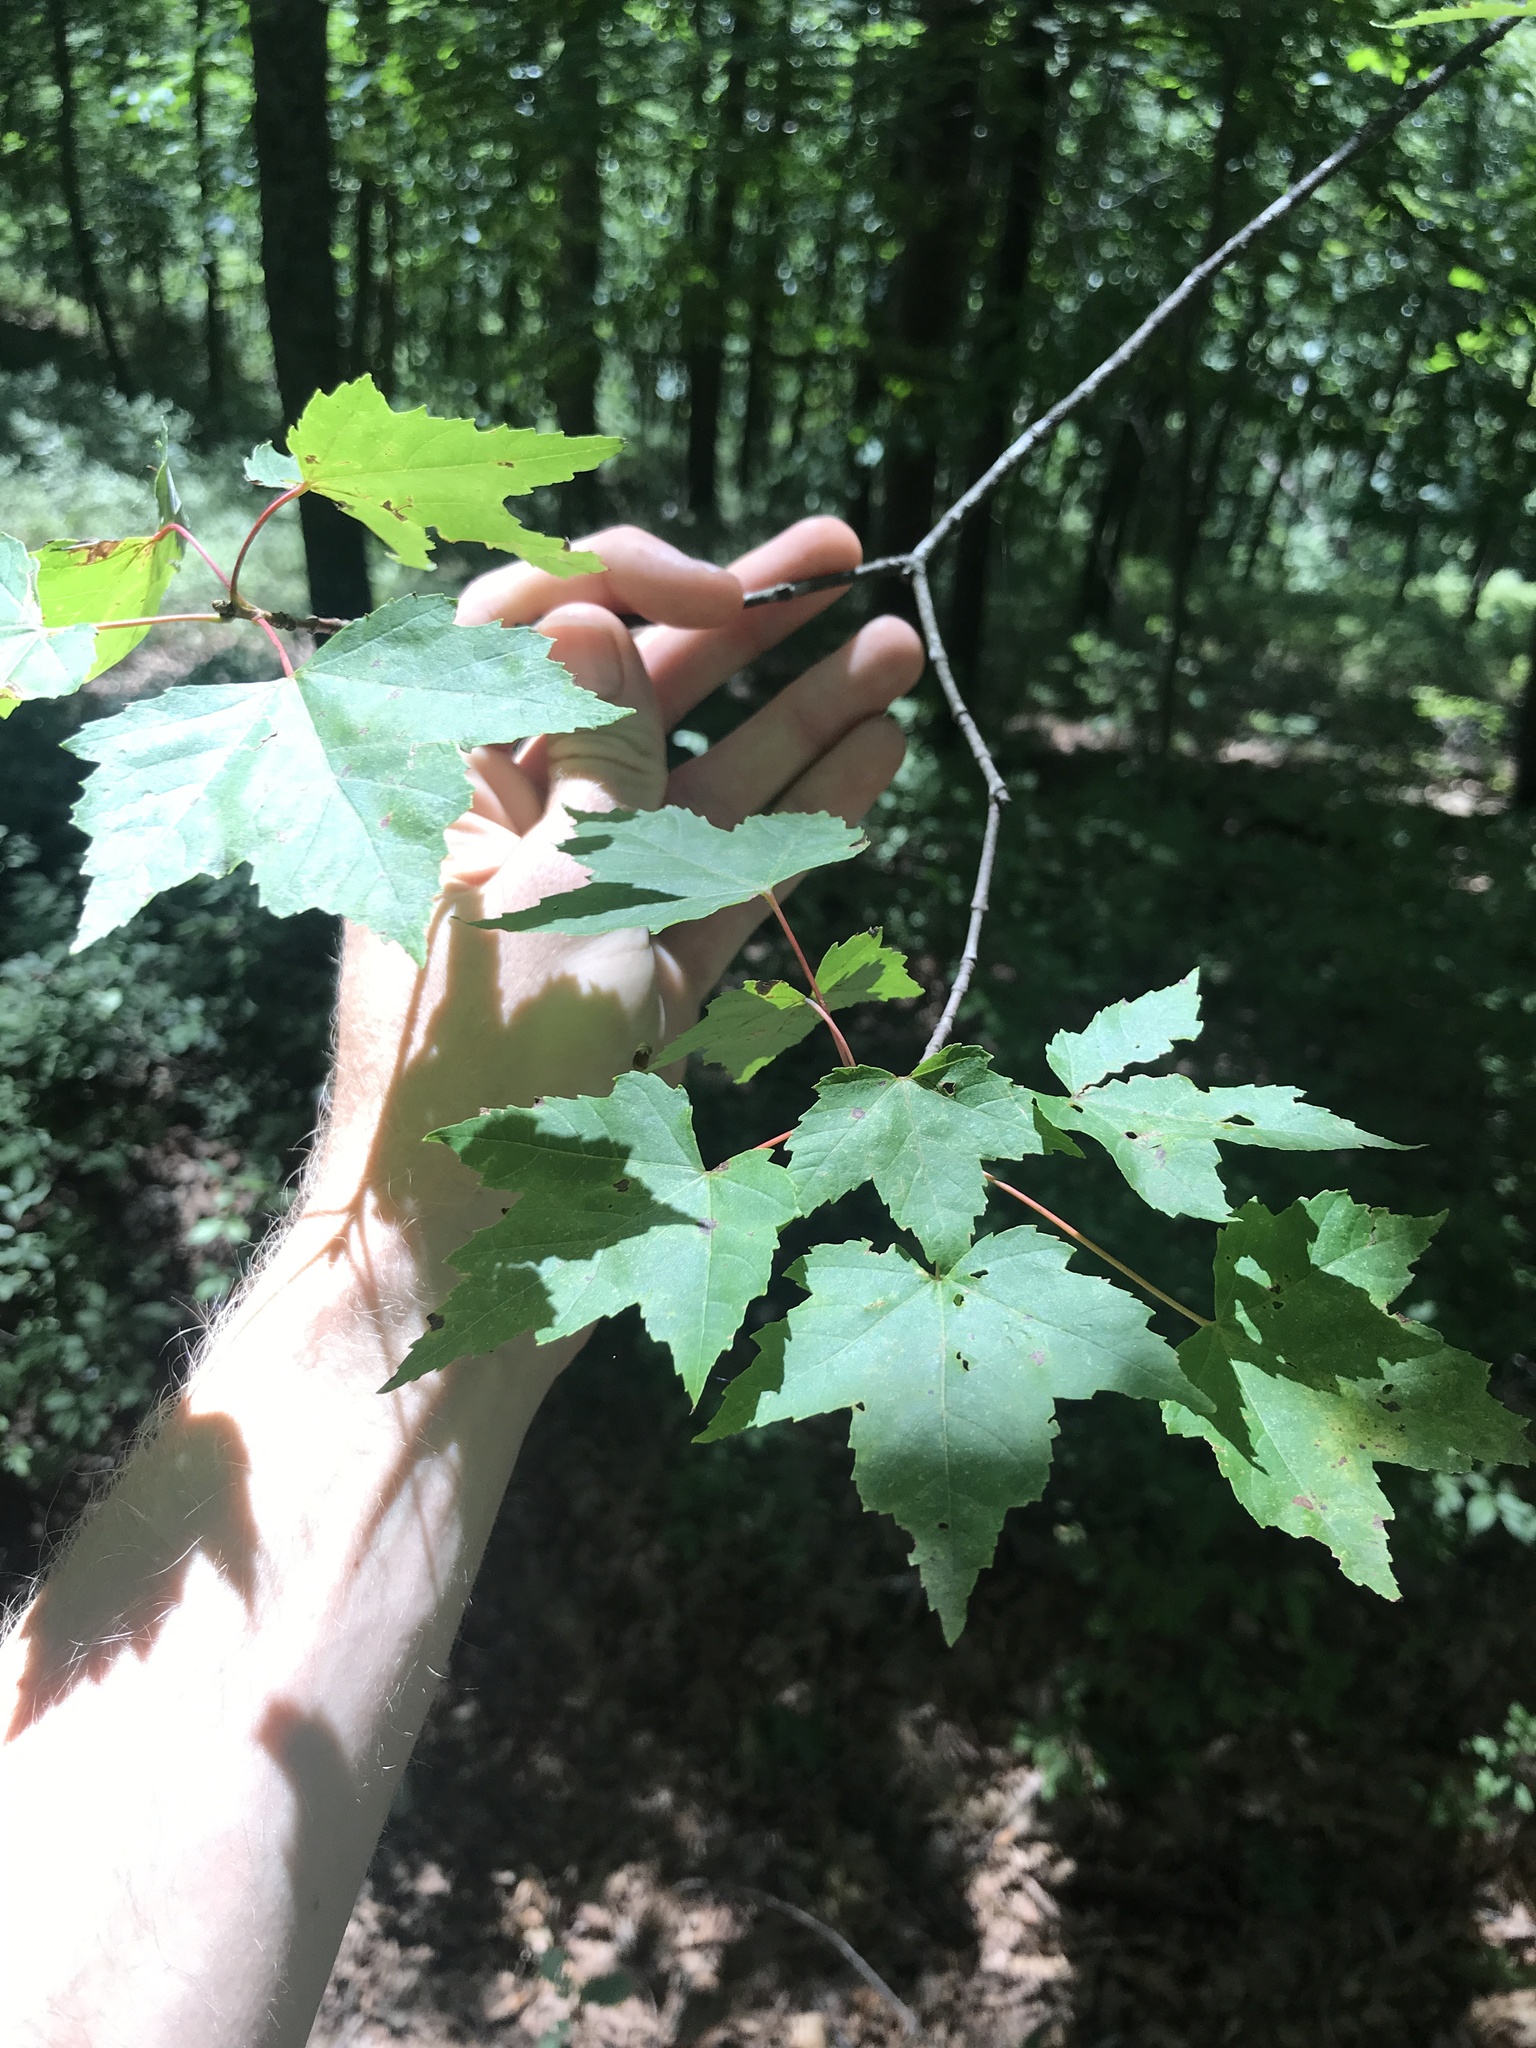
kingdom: Plantae
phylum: Tracheophyta
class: Magnoliopsida
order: Sapindales
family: Sapindaceae
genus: Acer
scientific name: Acer rubrum
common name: Red maple
